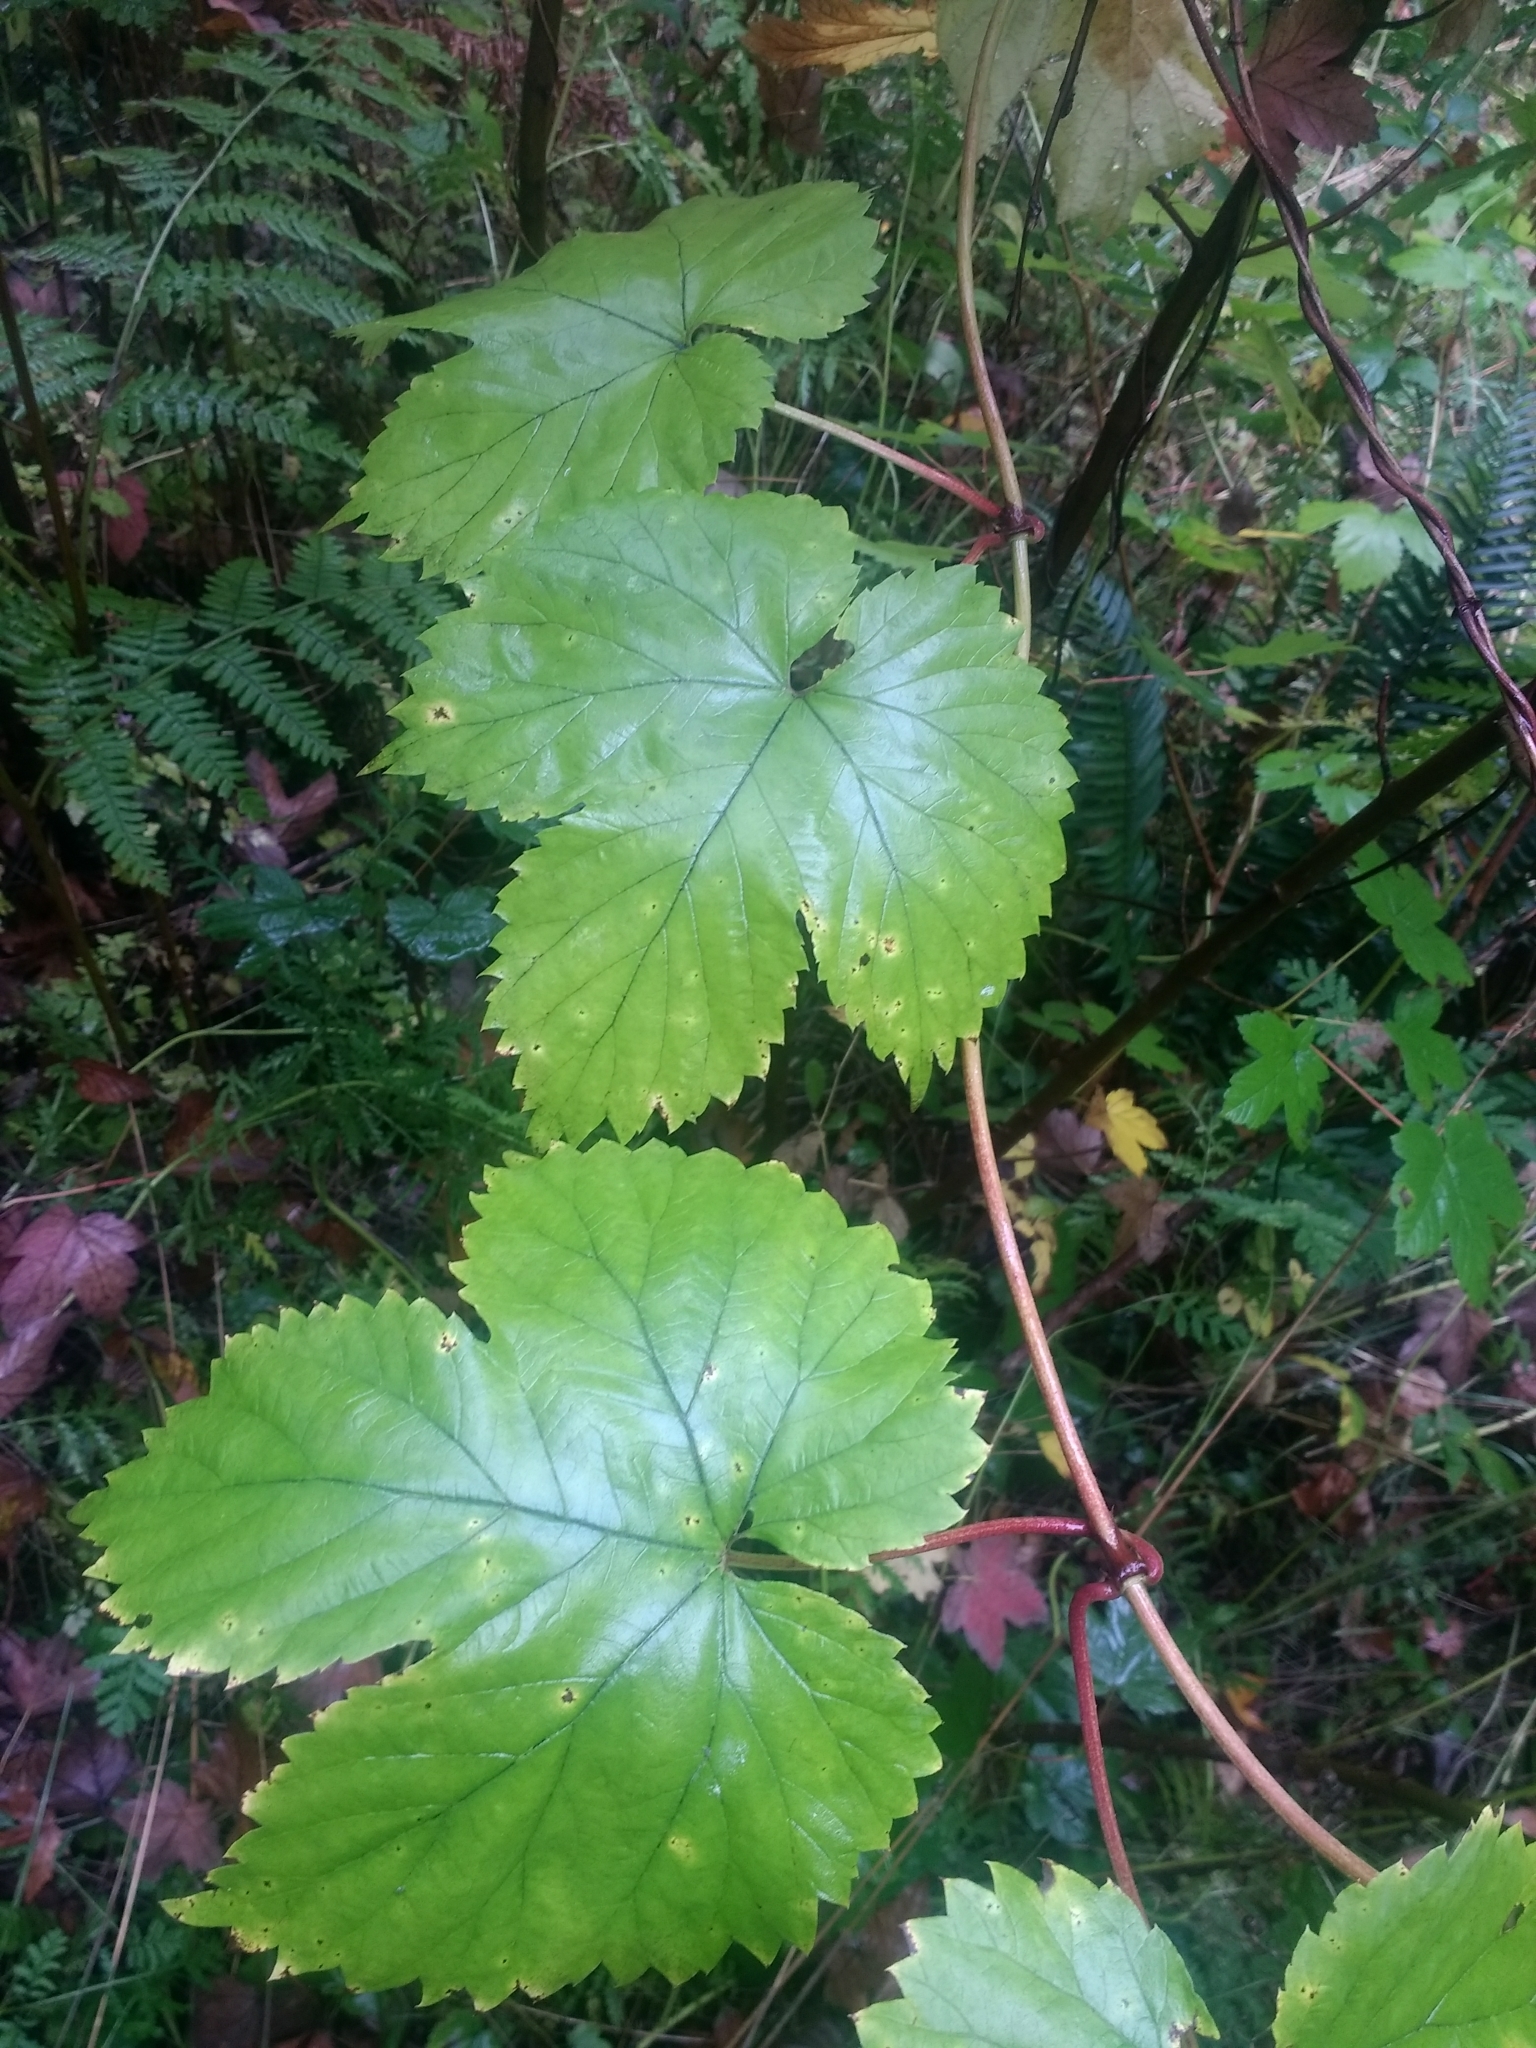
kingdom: Plantae
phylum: Tracheophyta
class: Magnoliopsida
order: Rosales
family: Cannabaceae
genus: Humulus
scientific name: Humulus lupulus
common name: Hop
